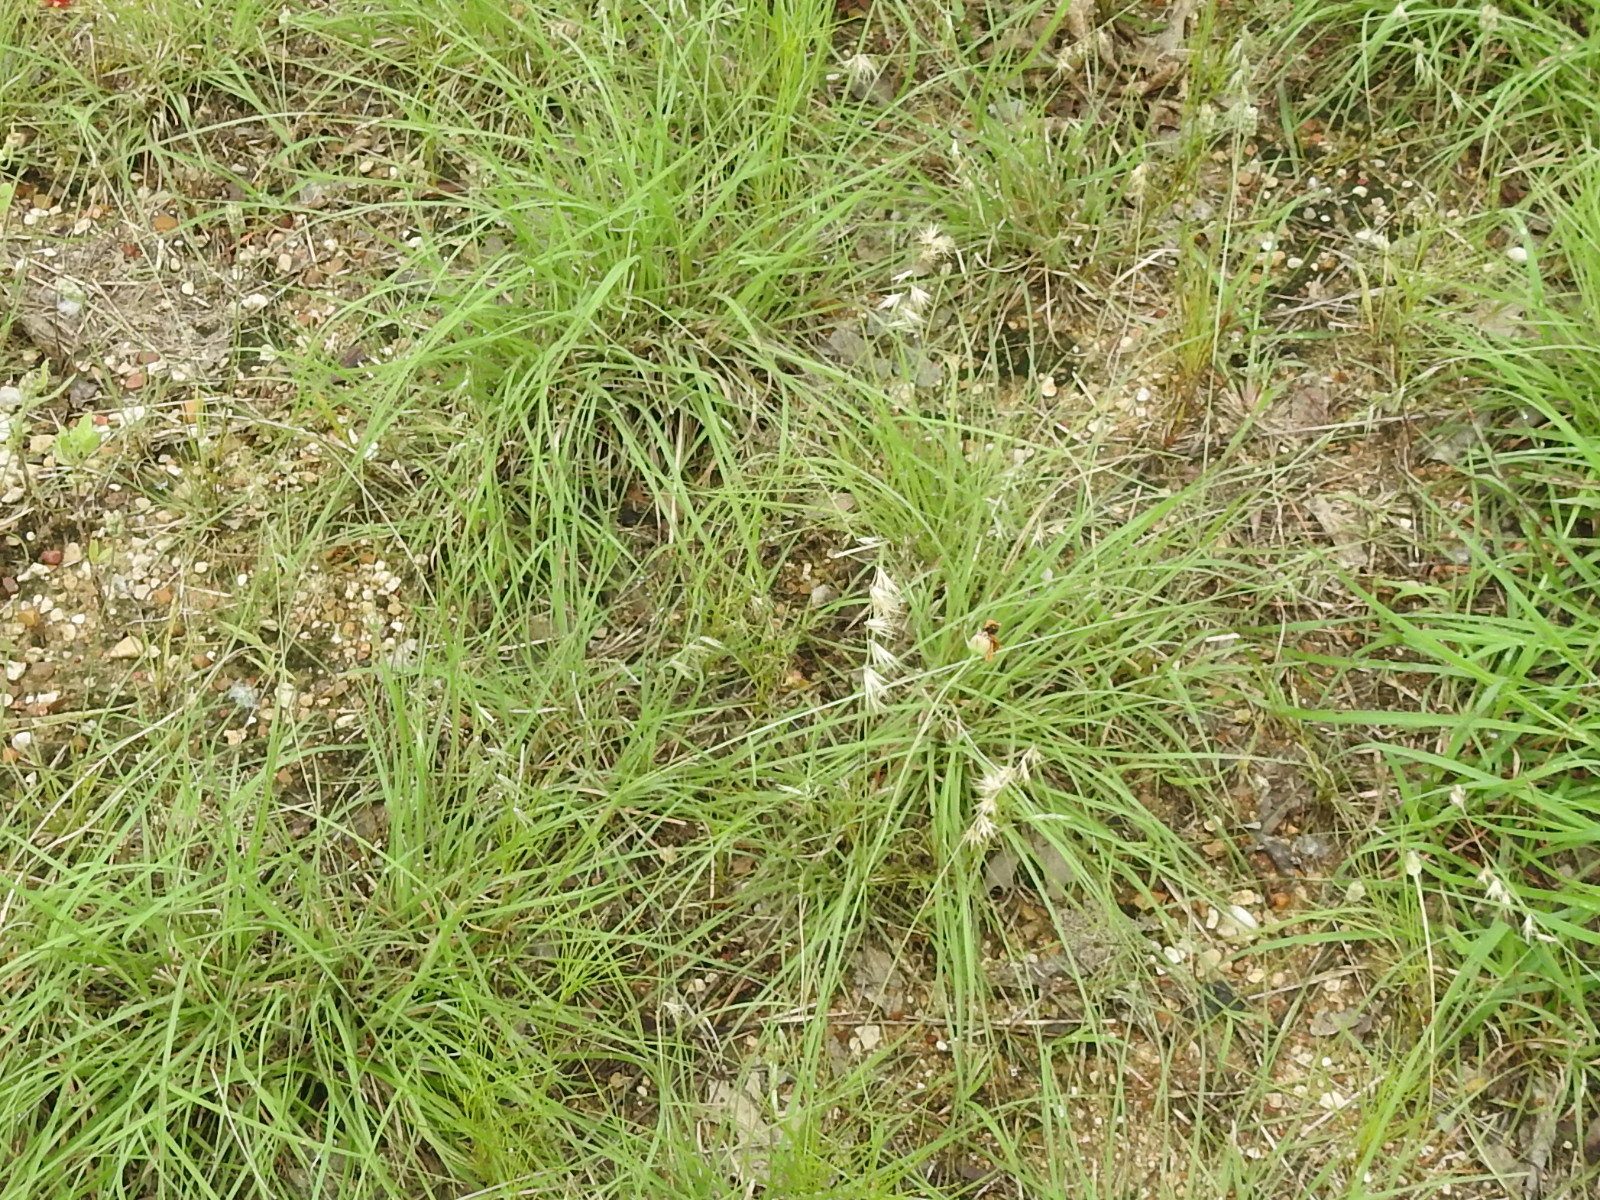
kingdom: Plantae
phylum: Tracheophyta
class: Liliopsida
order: Poales
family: Poaceae
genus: Bouteloua
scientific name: Bouteloua rigidiseta
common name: Texas grama
